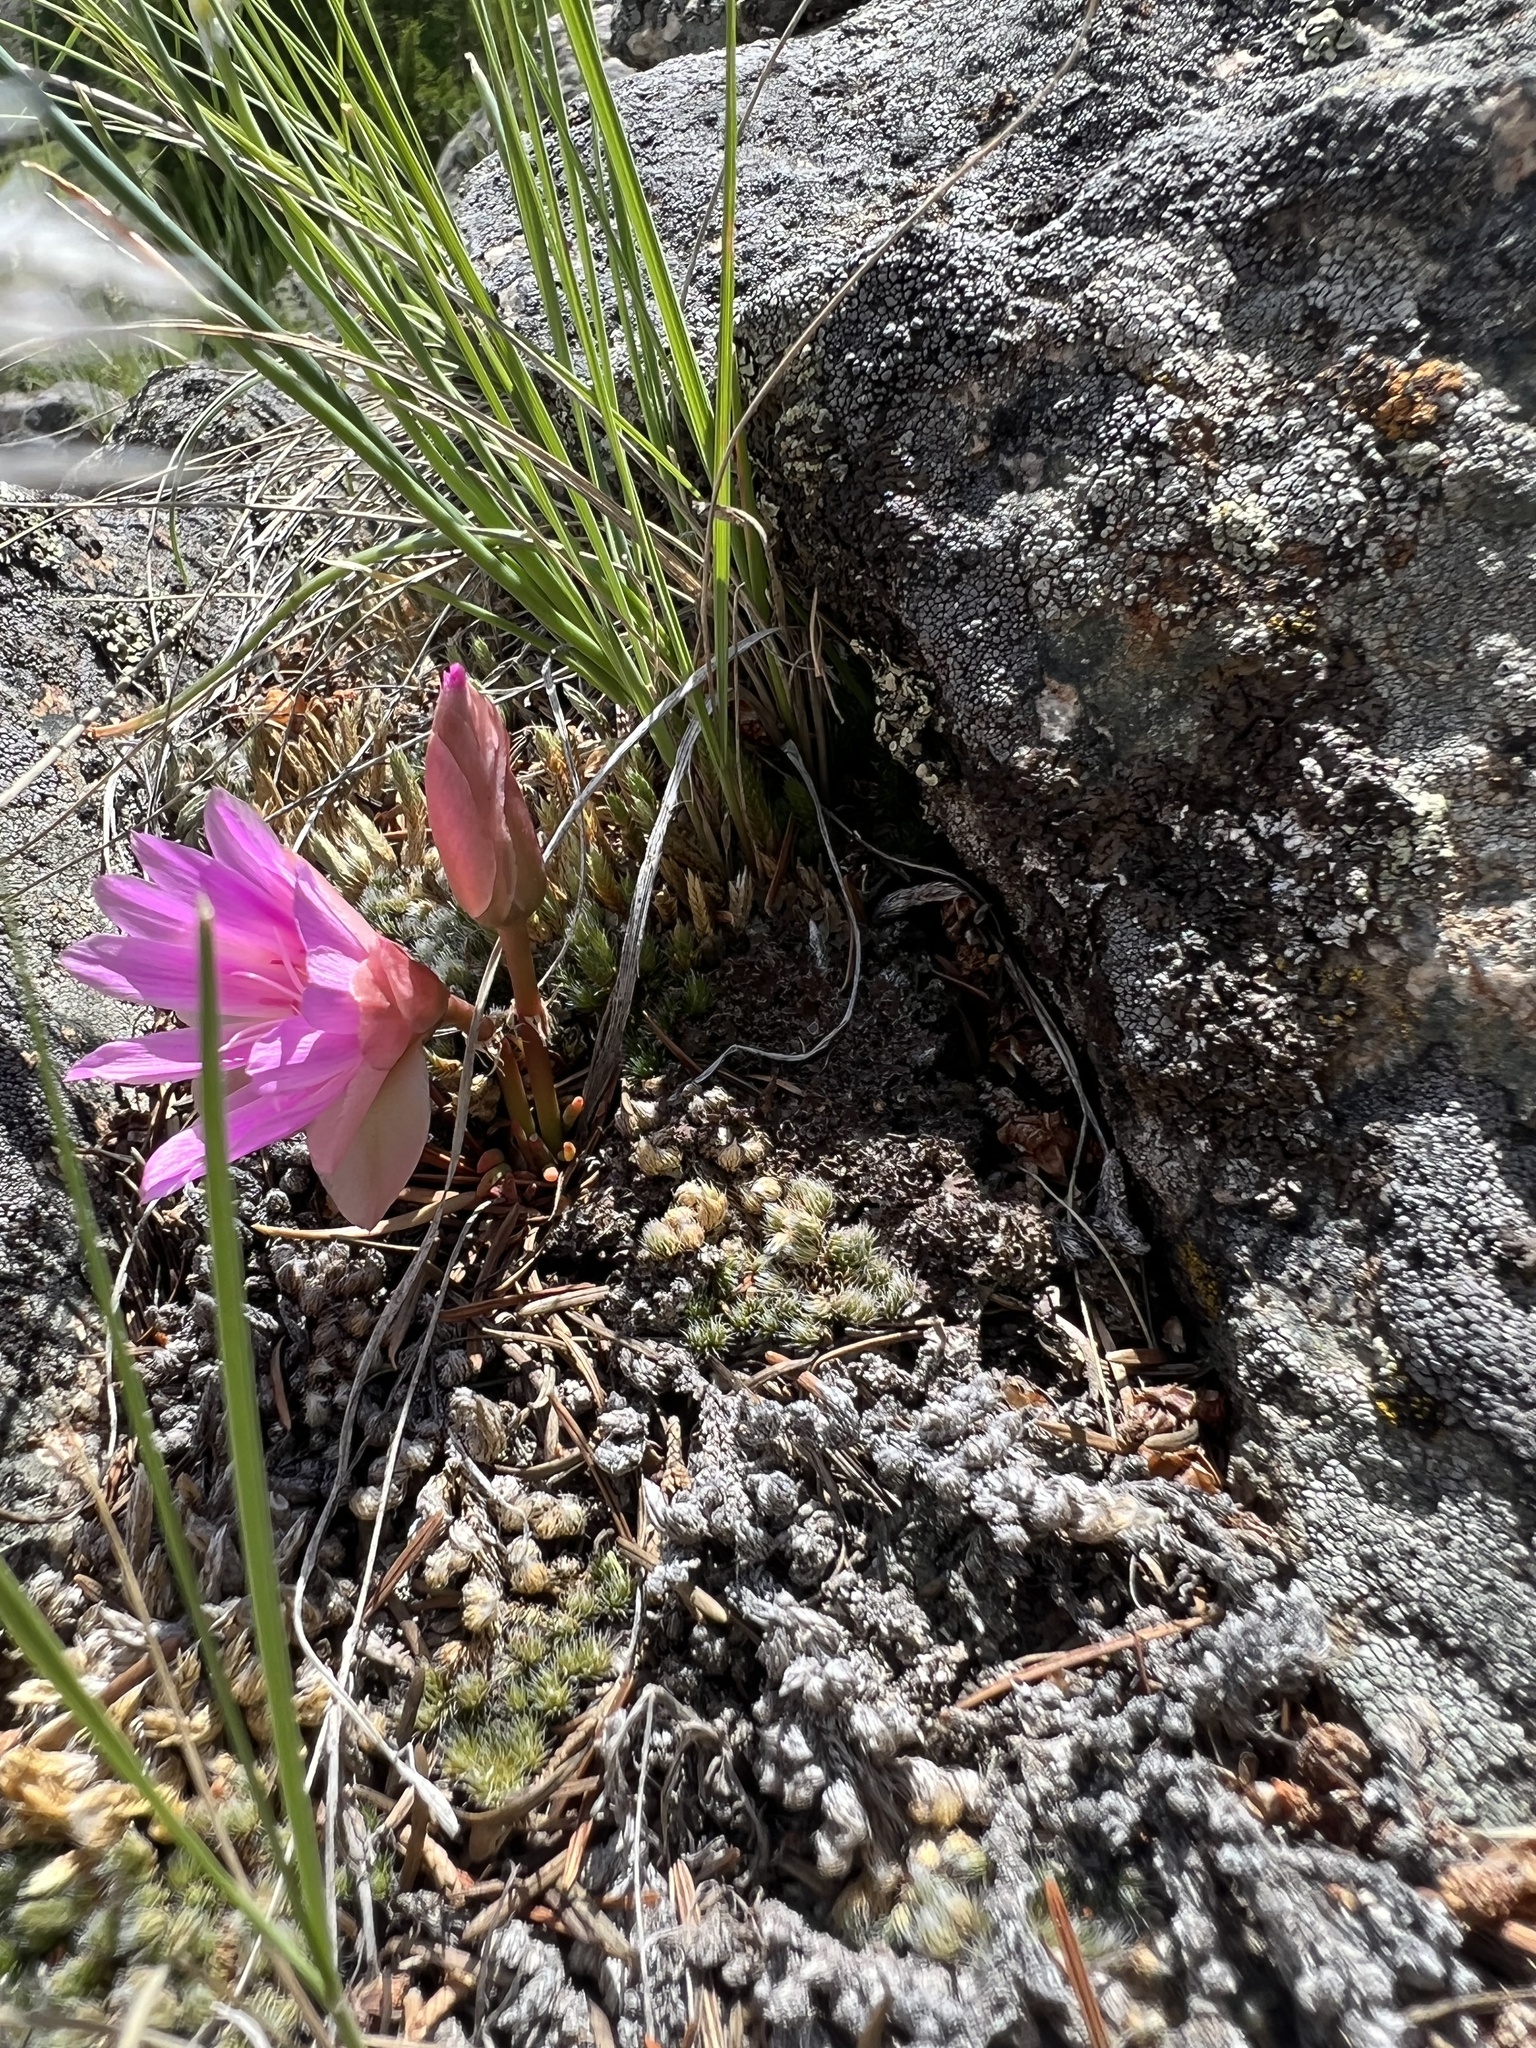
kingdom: Plantae
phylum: Tracheophyta
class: Magnoliopsida
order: Caryophyllales
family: Montiaceae
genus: Lewisia
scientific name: Lewisia rediviva
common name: Bitter-root
